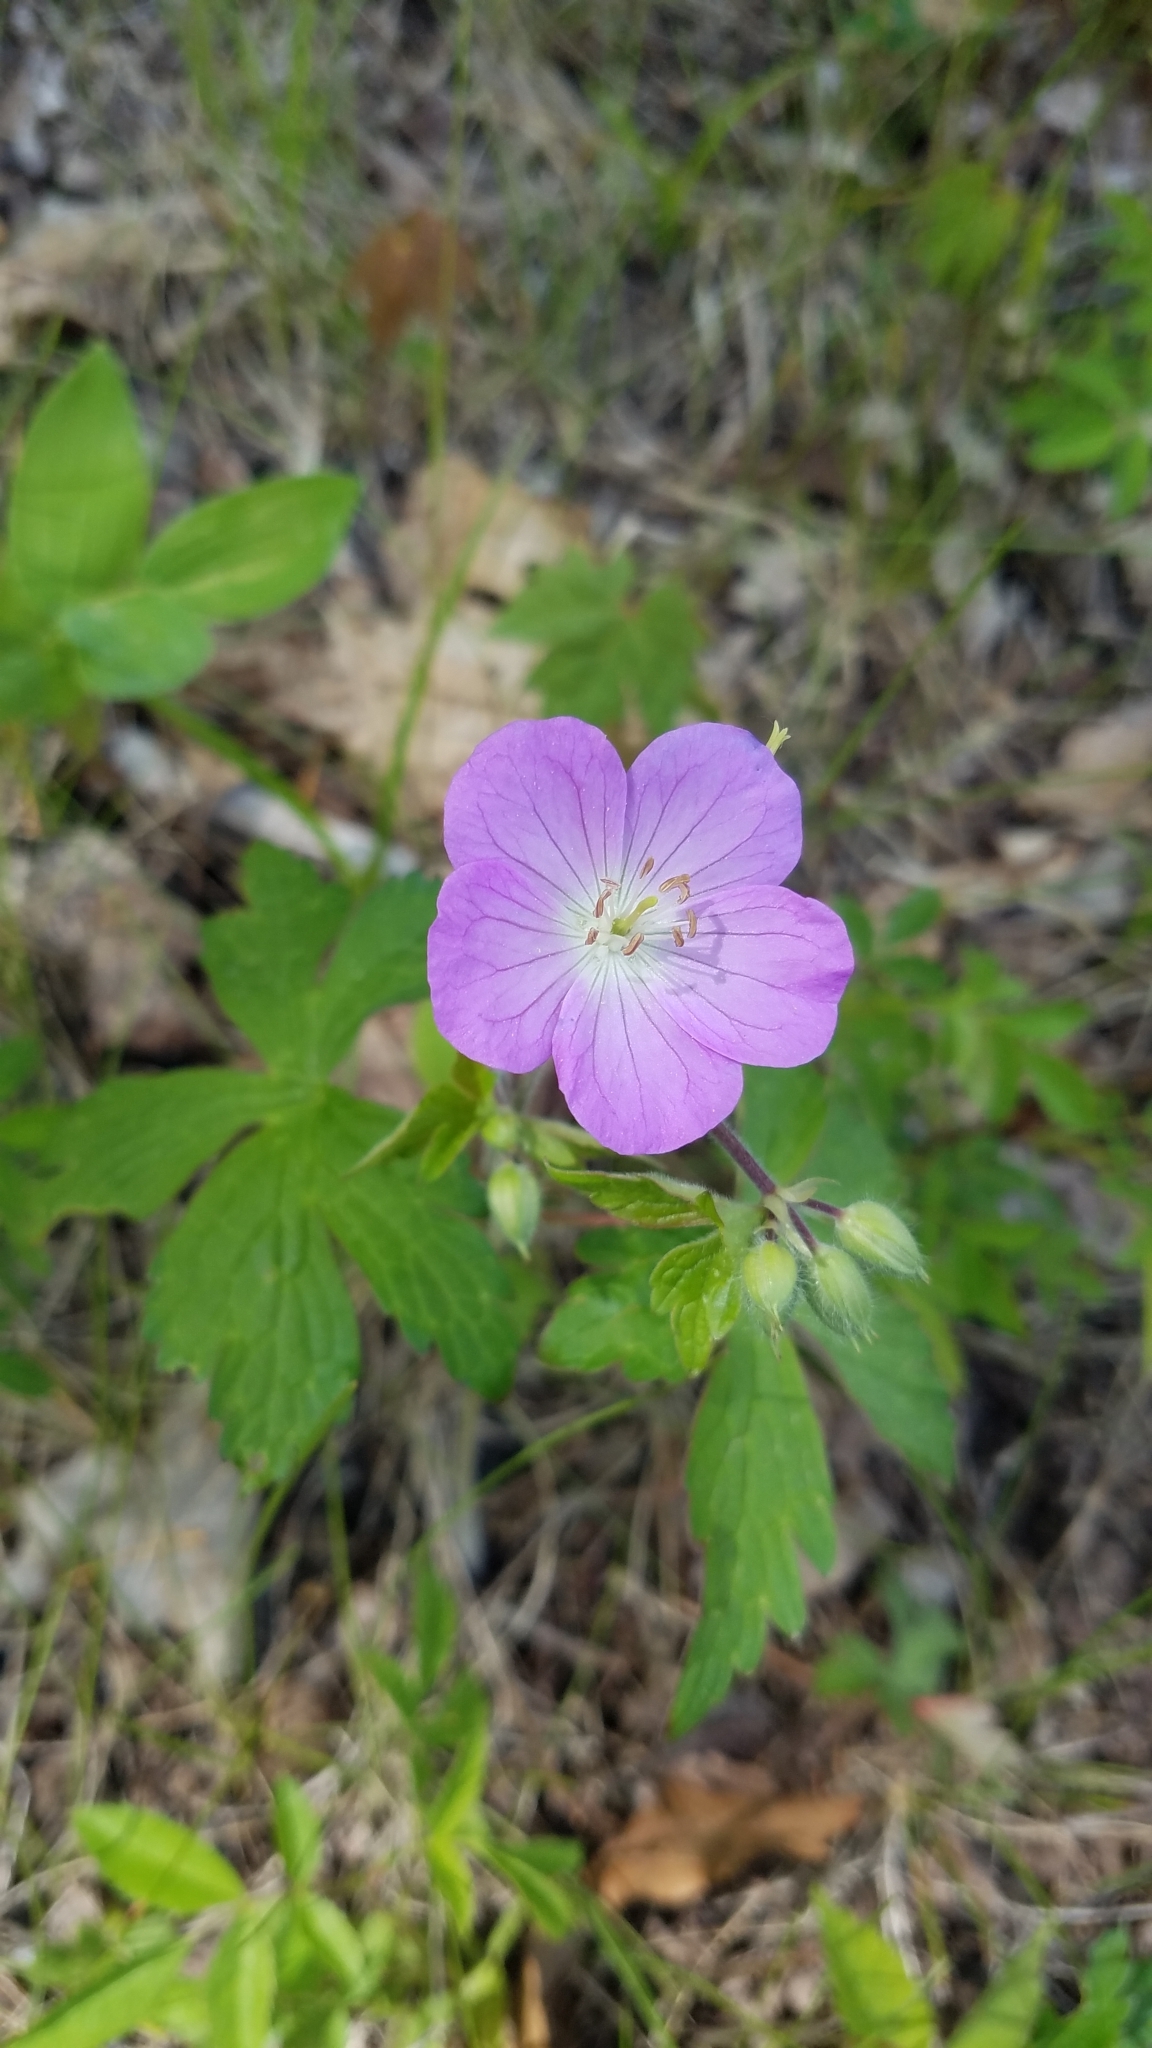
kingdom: Plantae
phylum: Tracheophyta
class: Magnoliopsida
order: Geraniales
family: Geraniaceae
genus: Geranium
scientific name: Geranium maculatum
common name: Spotted geranium
